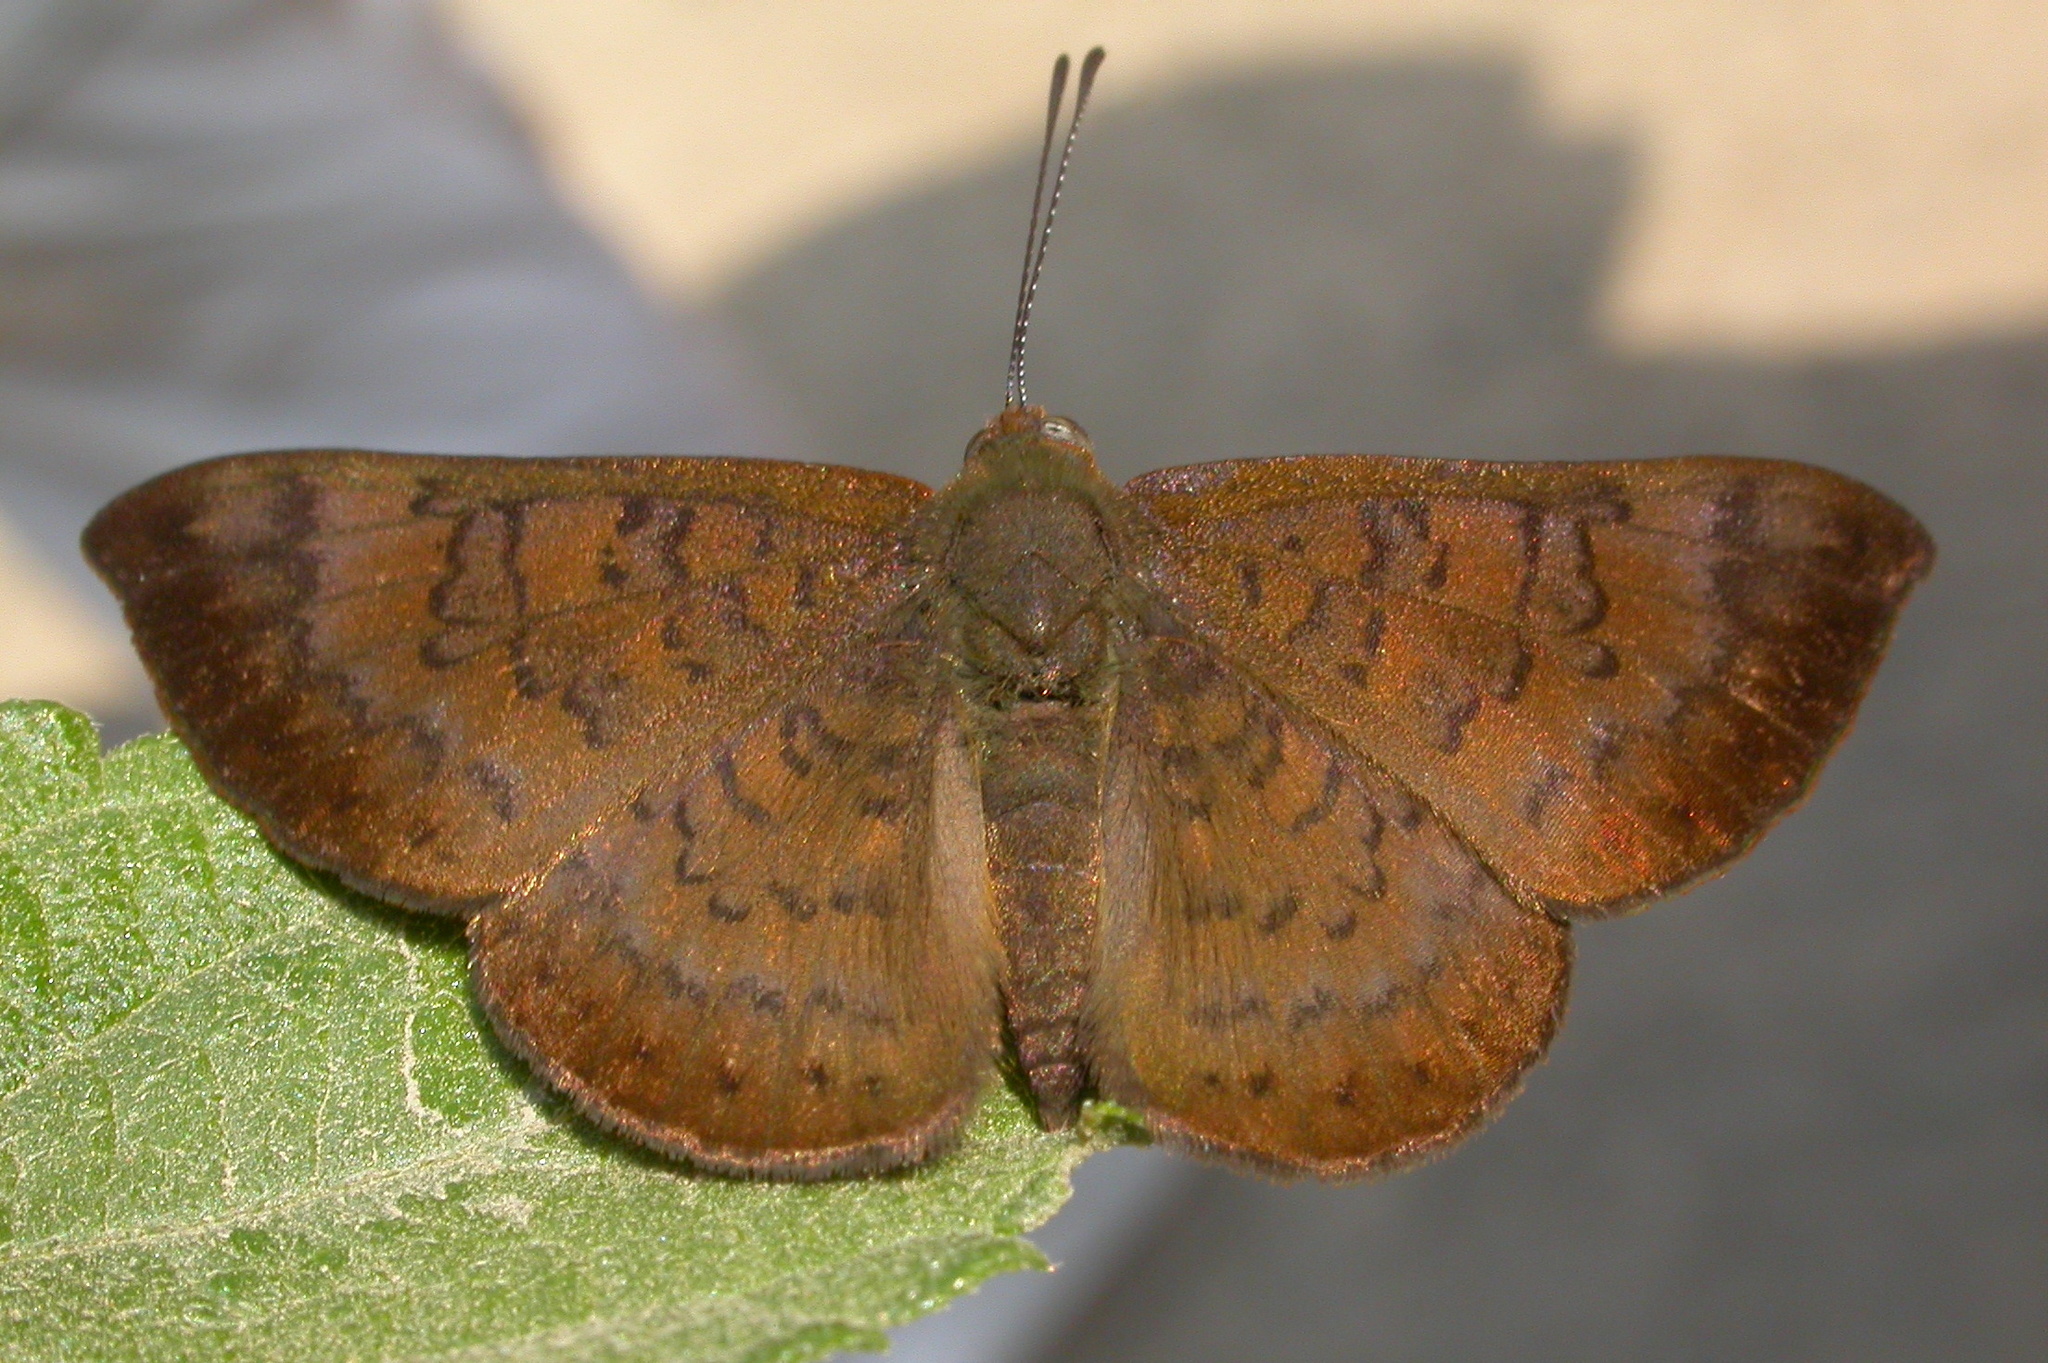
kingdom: Animalia
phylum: Arthropoda
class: Insecta
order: Lepidoptera
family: Lycaenidae
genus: Emesis
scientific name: Emesis tenedia
